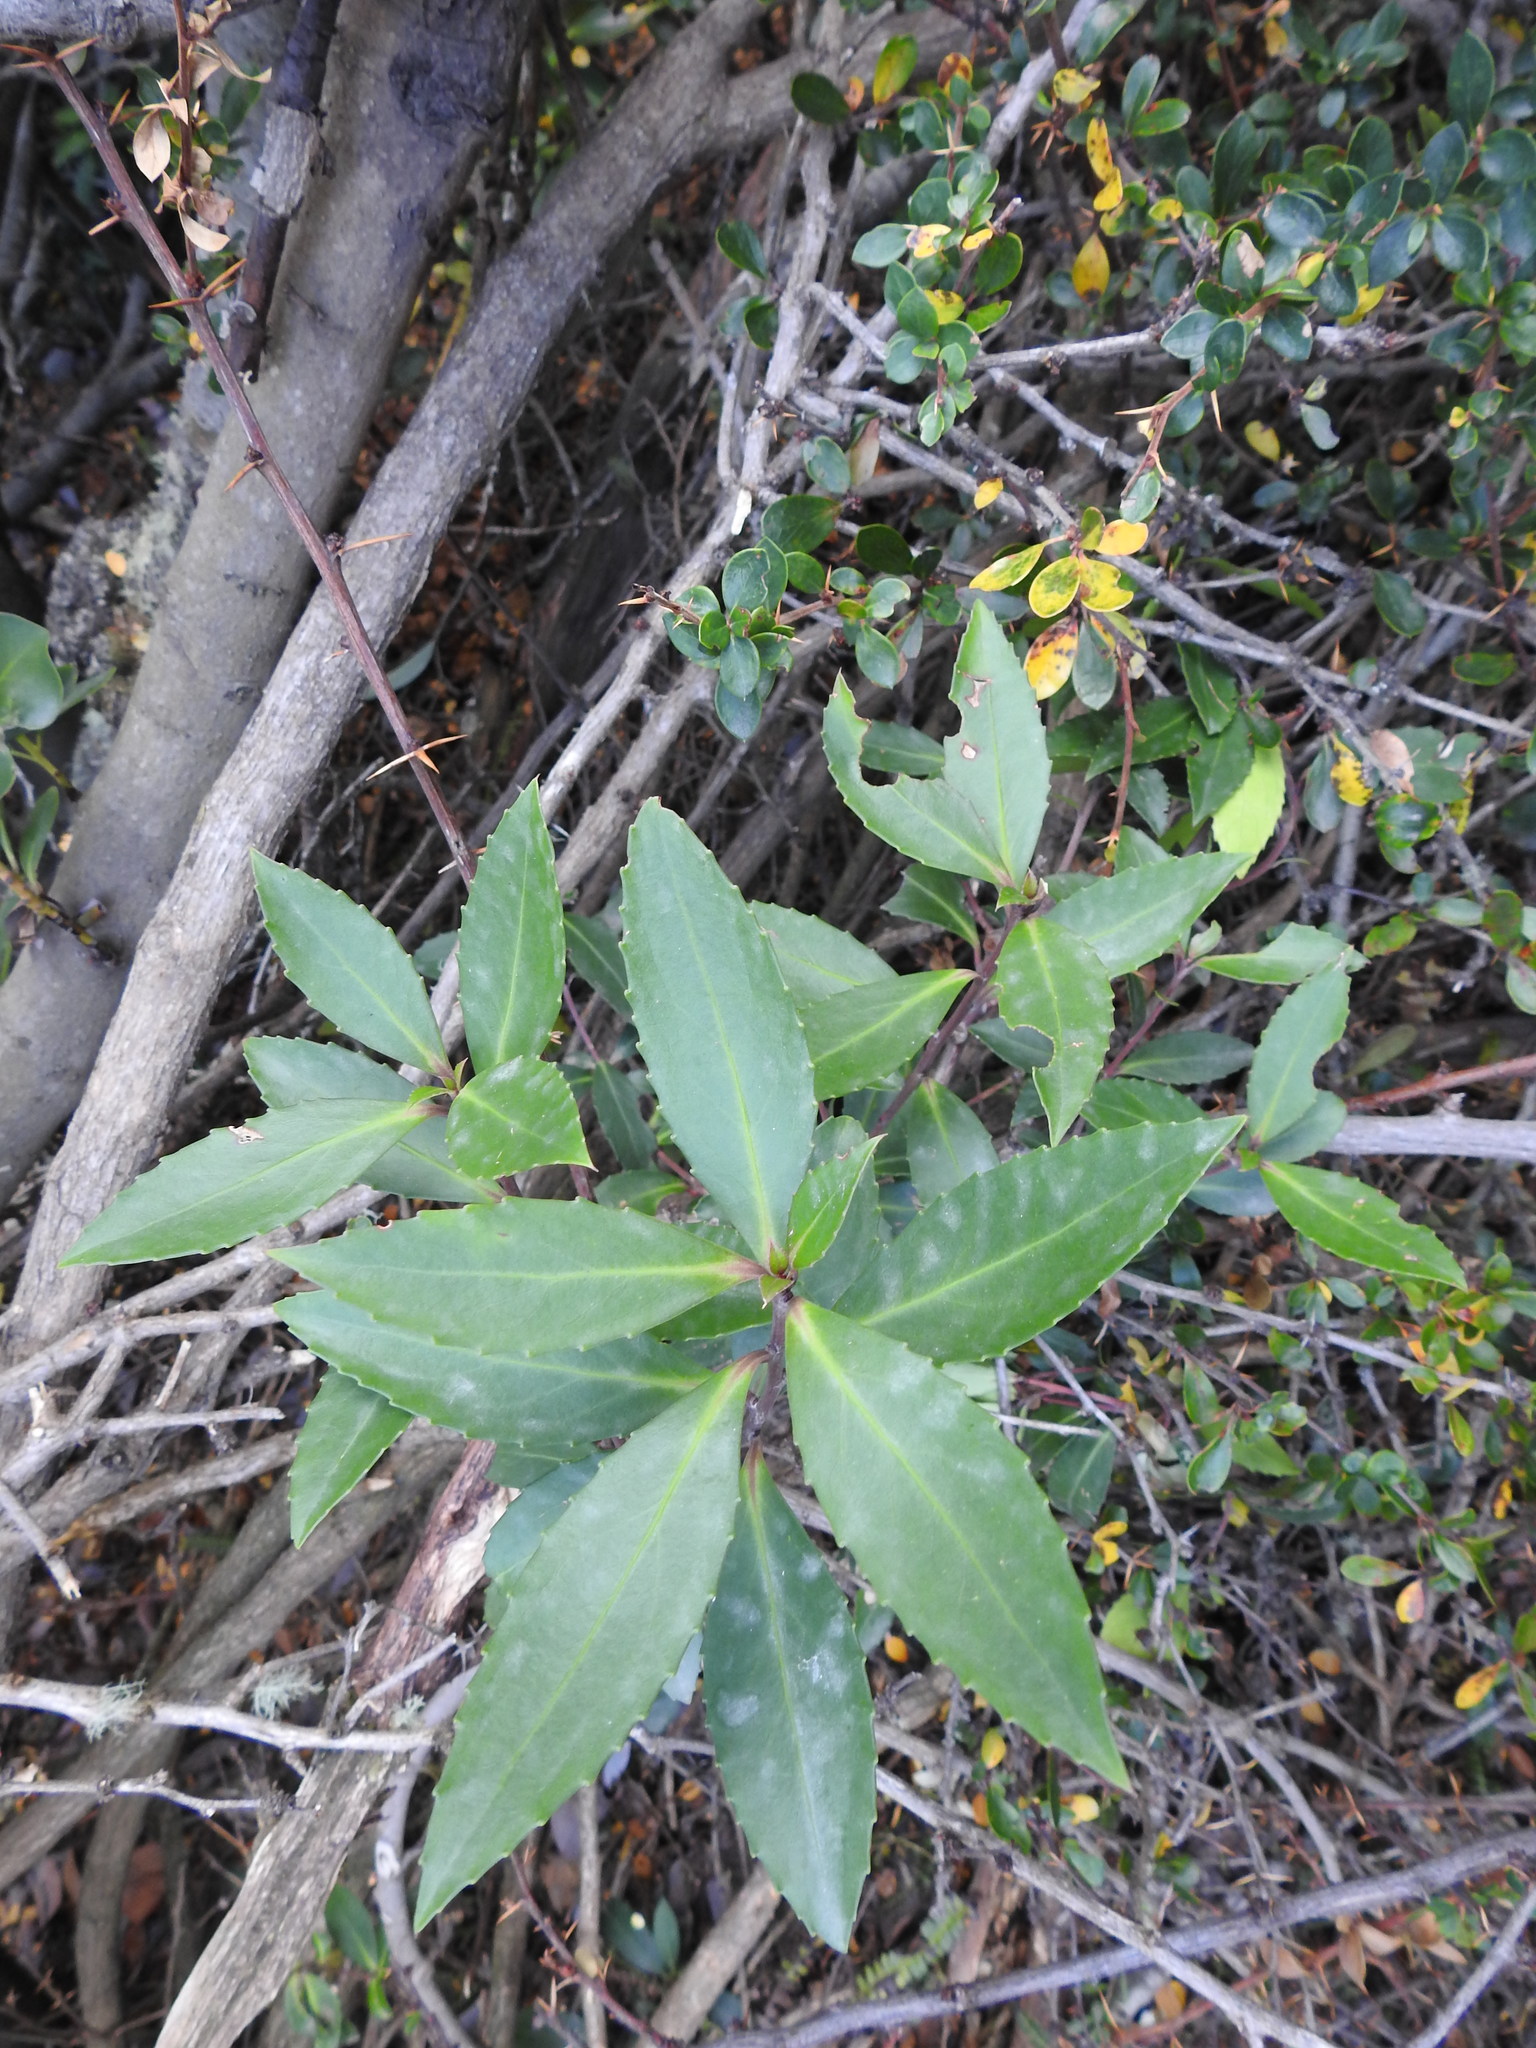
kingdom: Plantae
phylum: Tracheophyta
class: Magnoliopsida
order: Celastrales
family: Celastraceae
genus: Maytenus
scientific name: Maytenus magellanica
